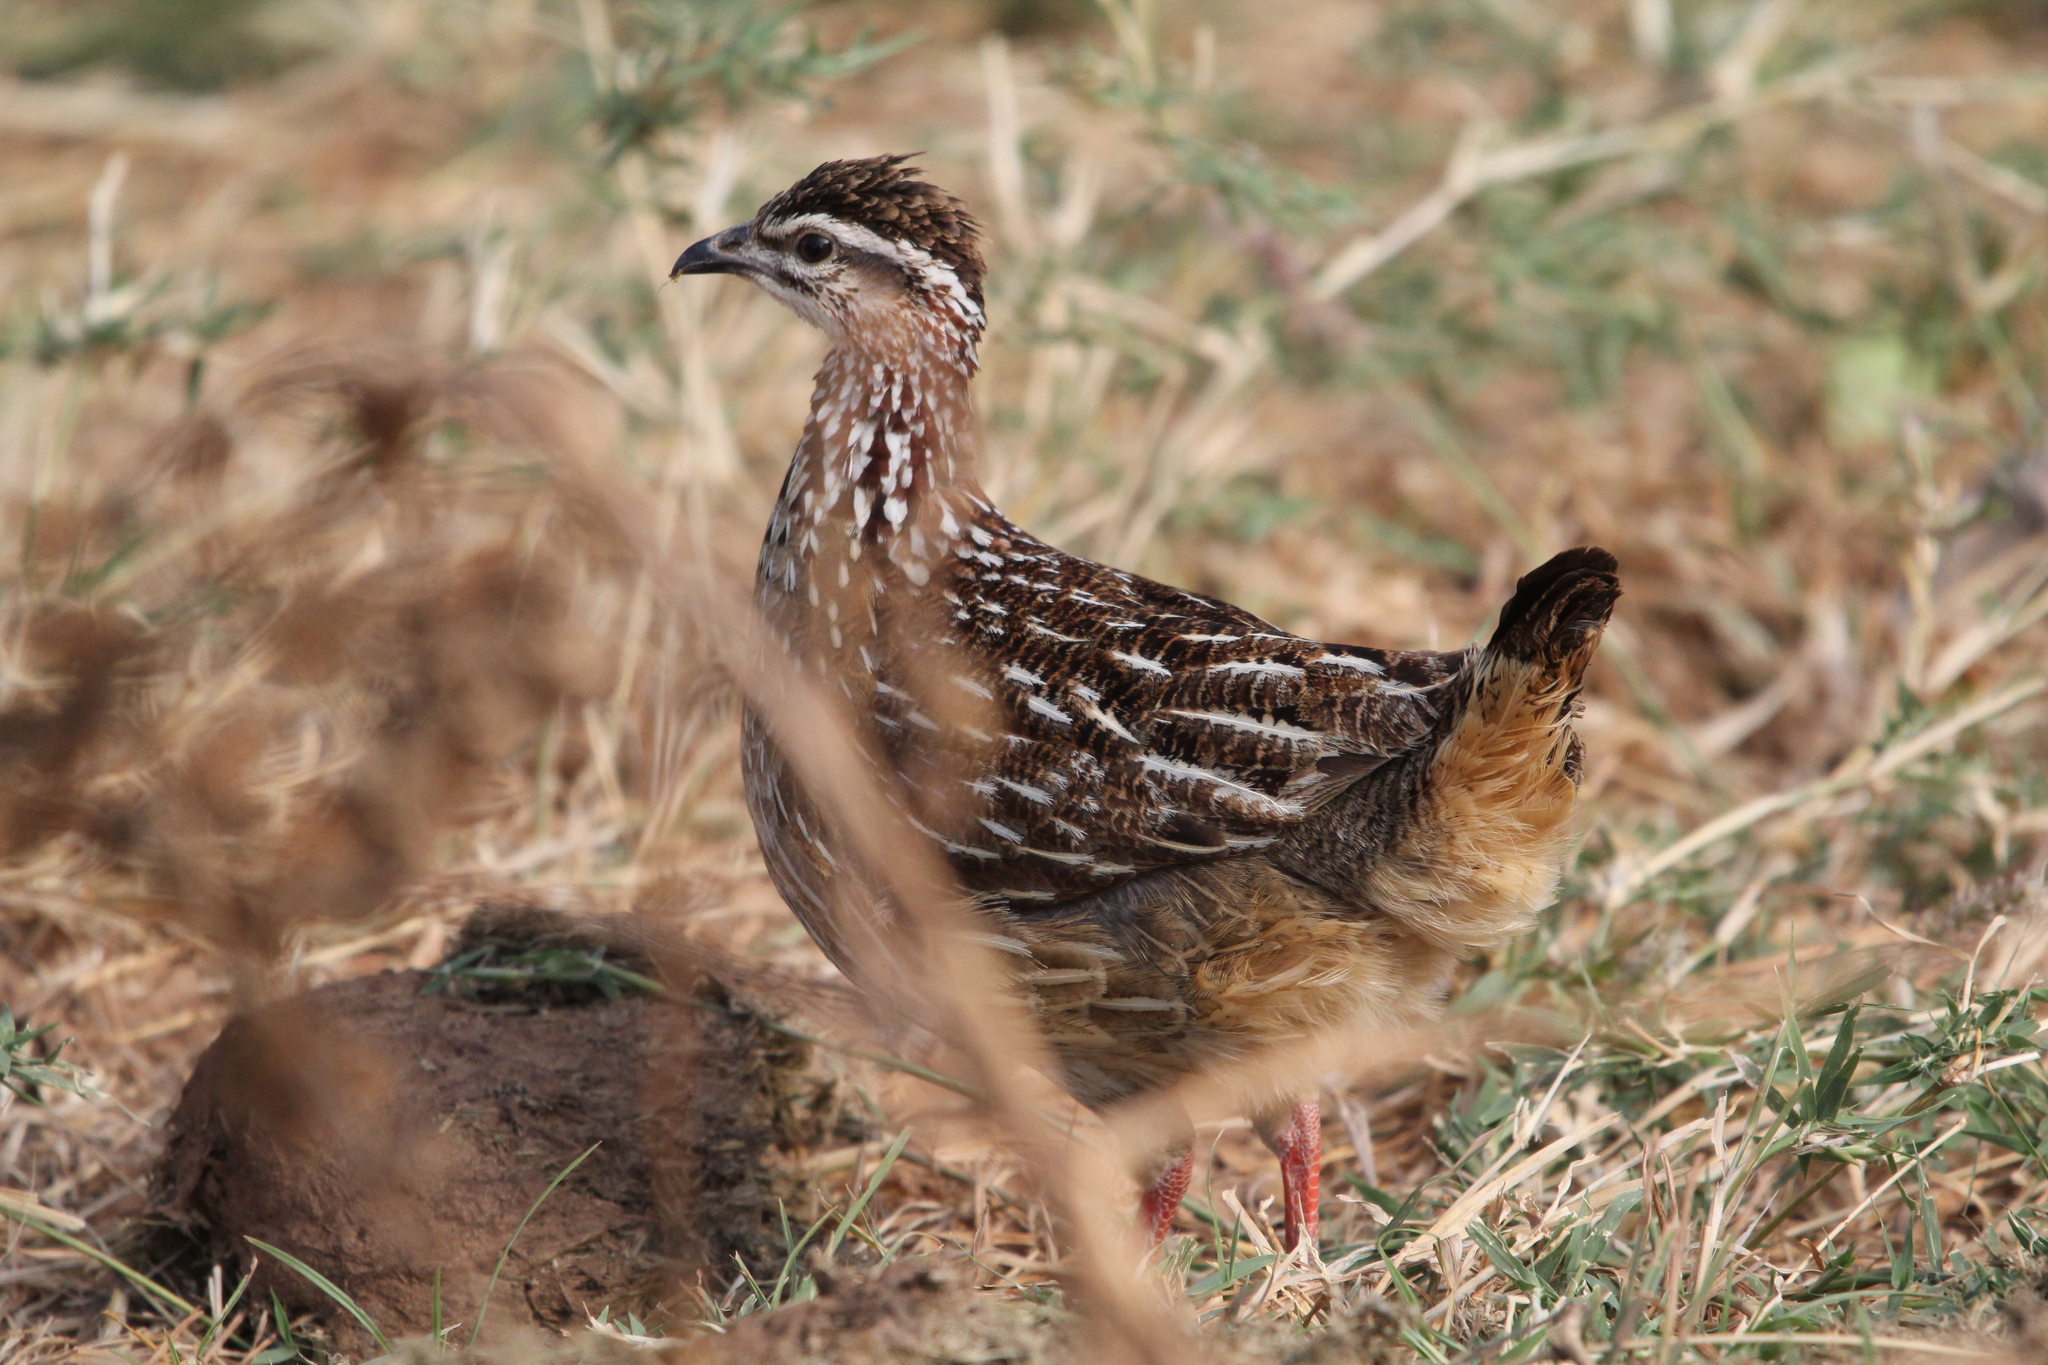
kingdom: Animalia
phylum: Chordata
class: Aves
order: Galliformes
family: Phasianidae
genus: Ortygornis
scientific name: Ortygornis sephaena
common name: Crested francolin
